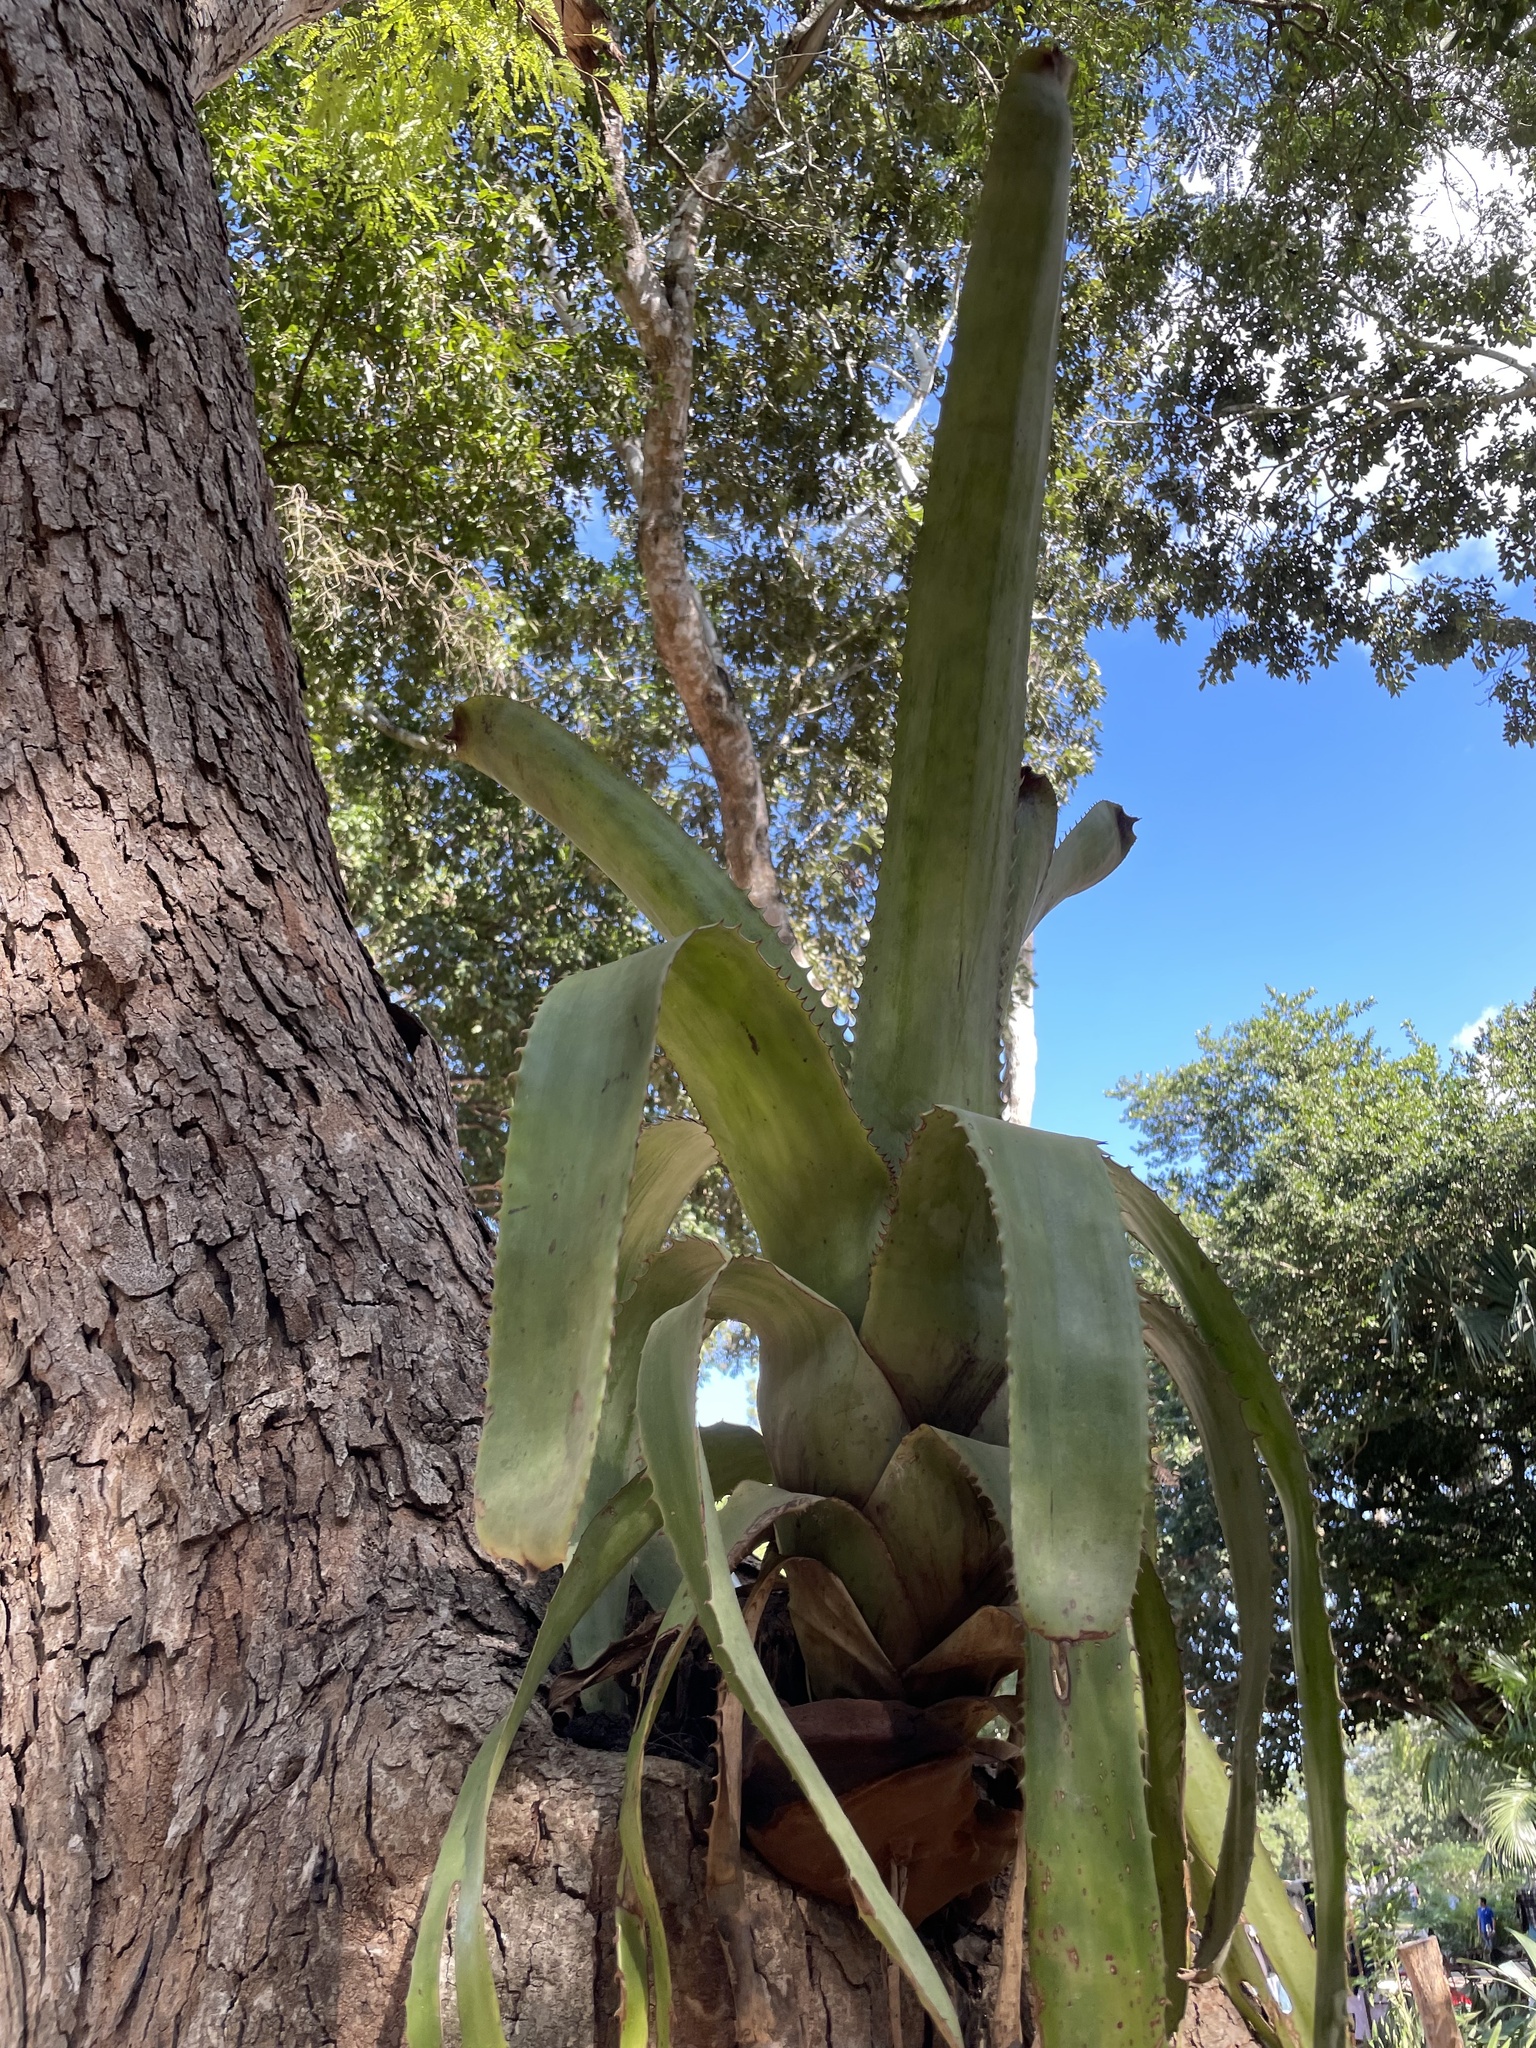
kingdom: Plantae
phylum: Tracheophyta
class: Liliopsida
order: Poales
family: Bromeliaceae
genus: Aechmea
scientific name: Aechmea bracteata
